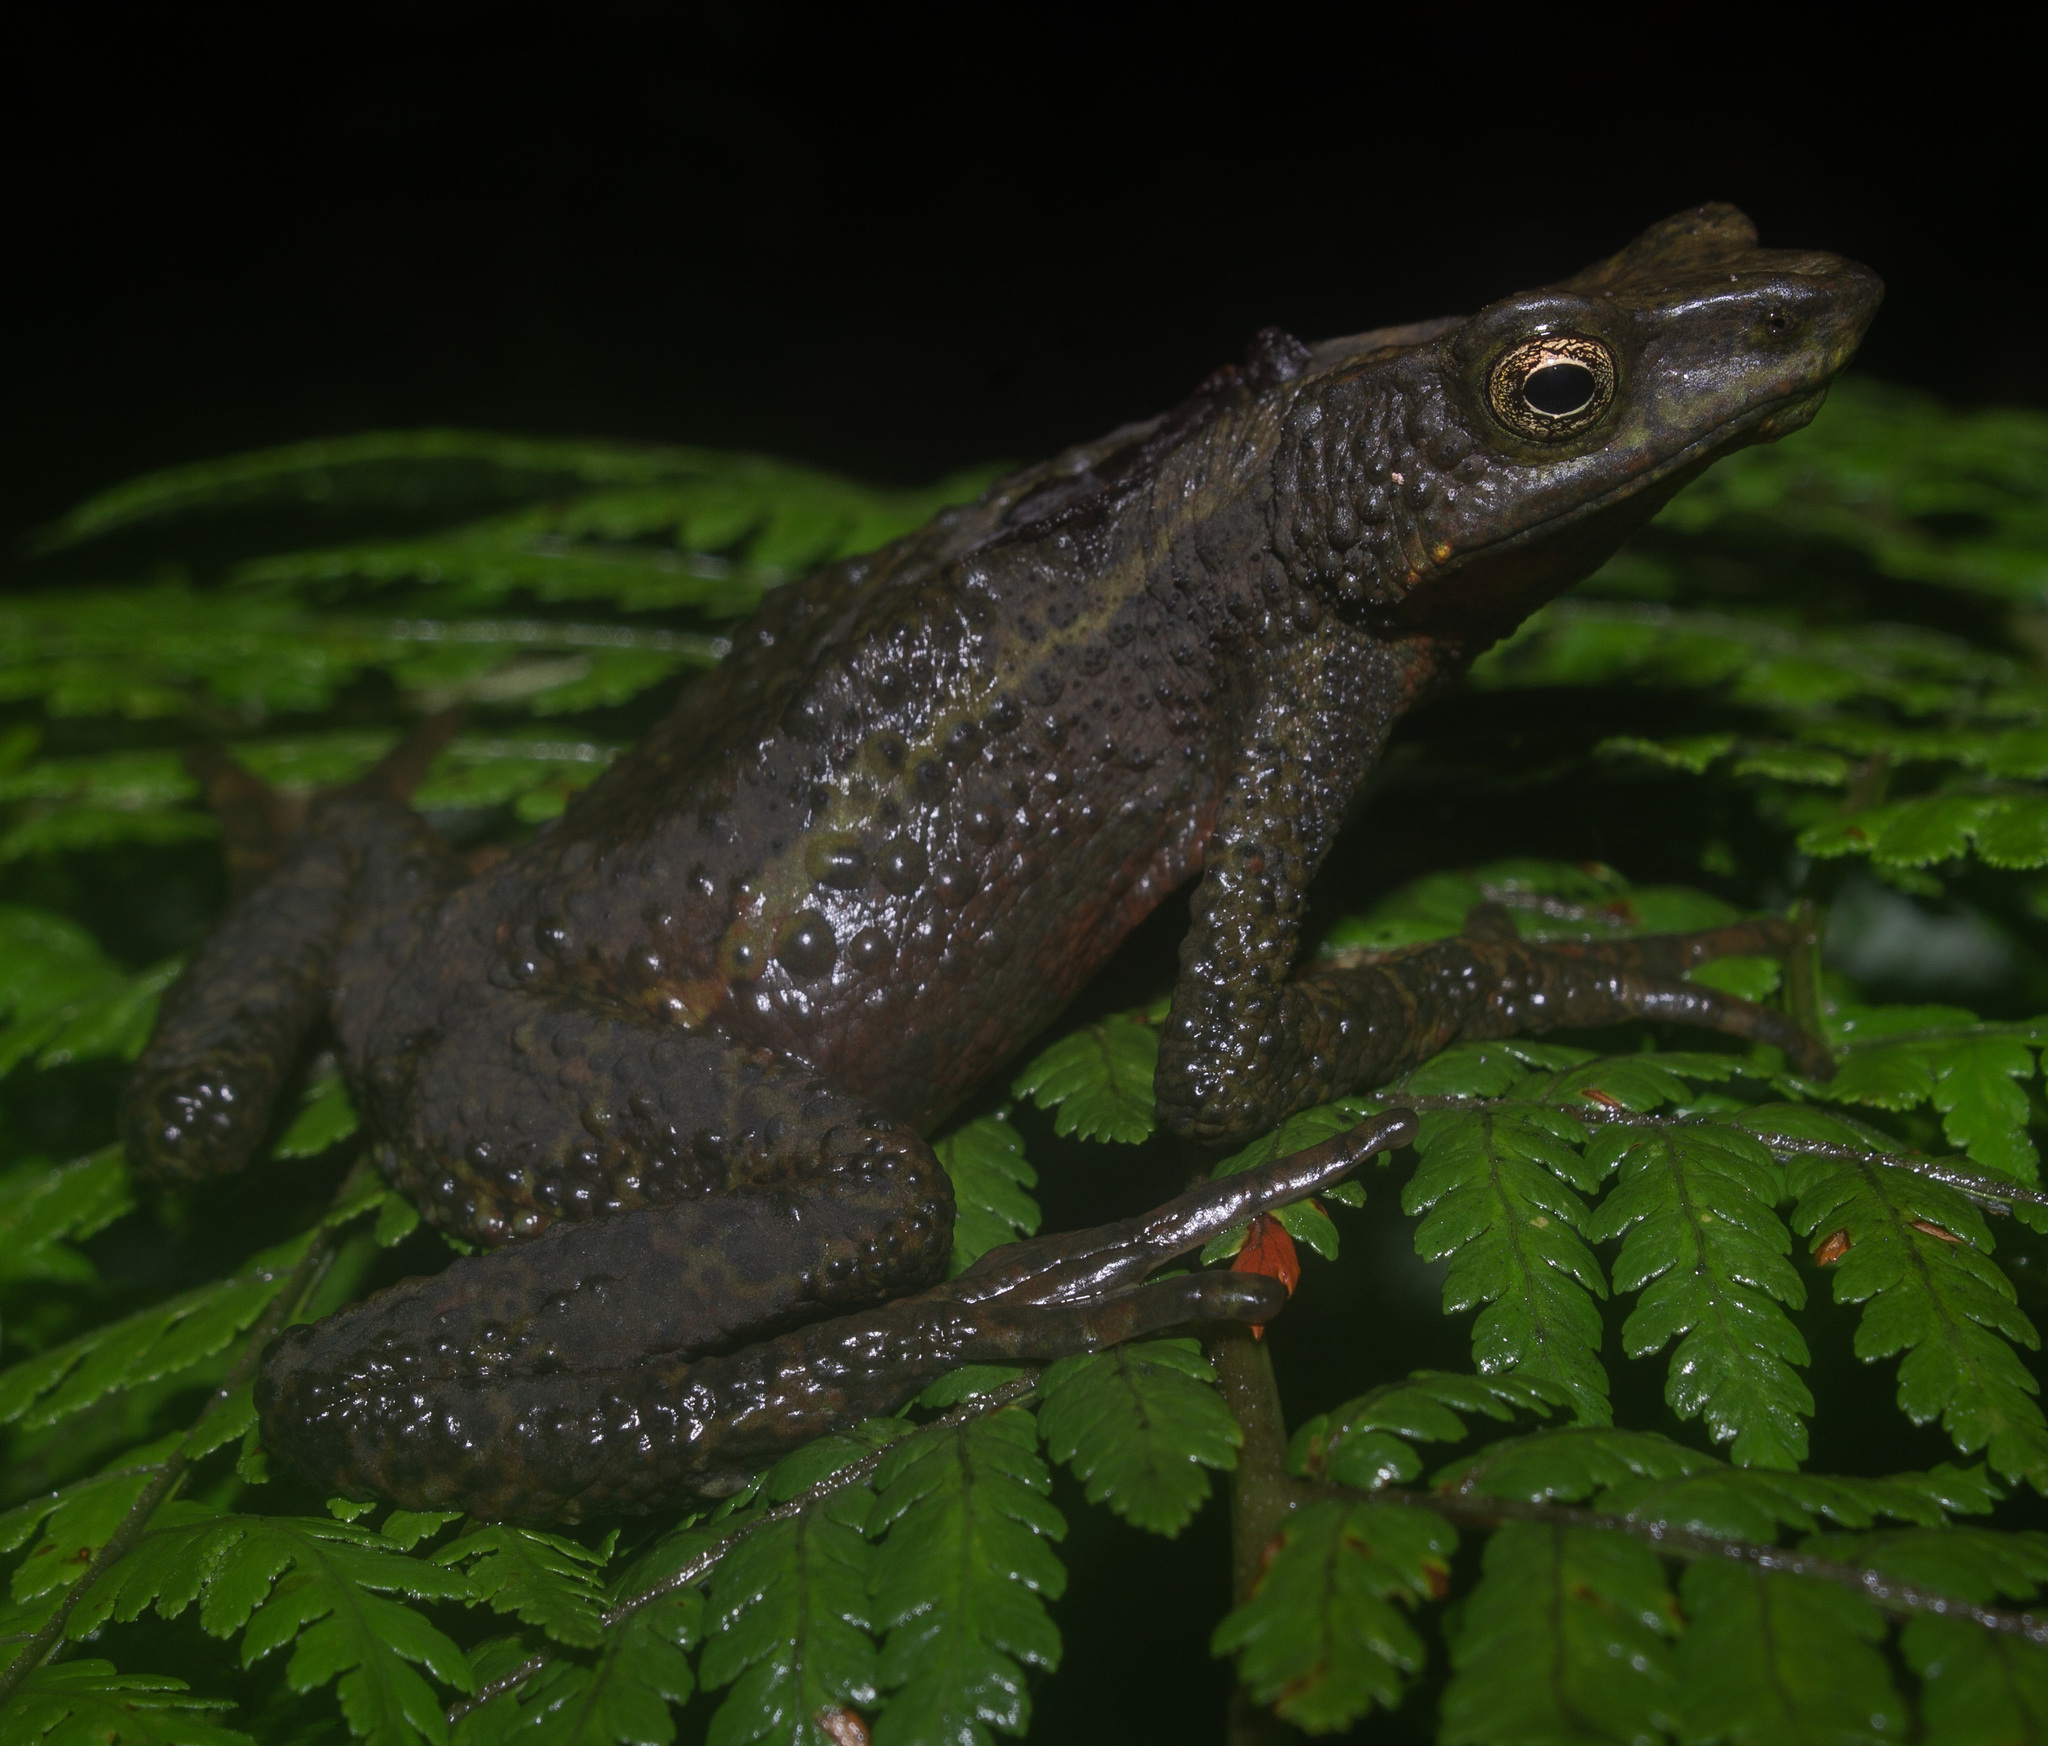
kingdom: Animalia
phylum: Chordata
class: Amphibia
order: Anura
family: Bufonidae
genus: Atelopus
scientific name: Atelopus laetissimus
